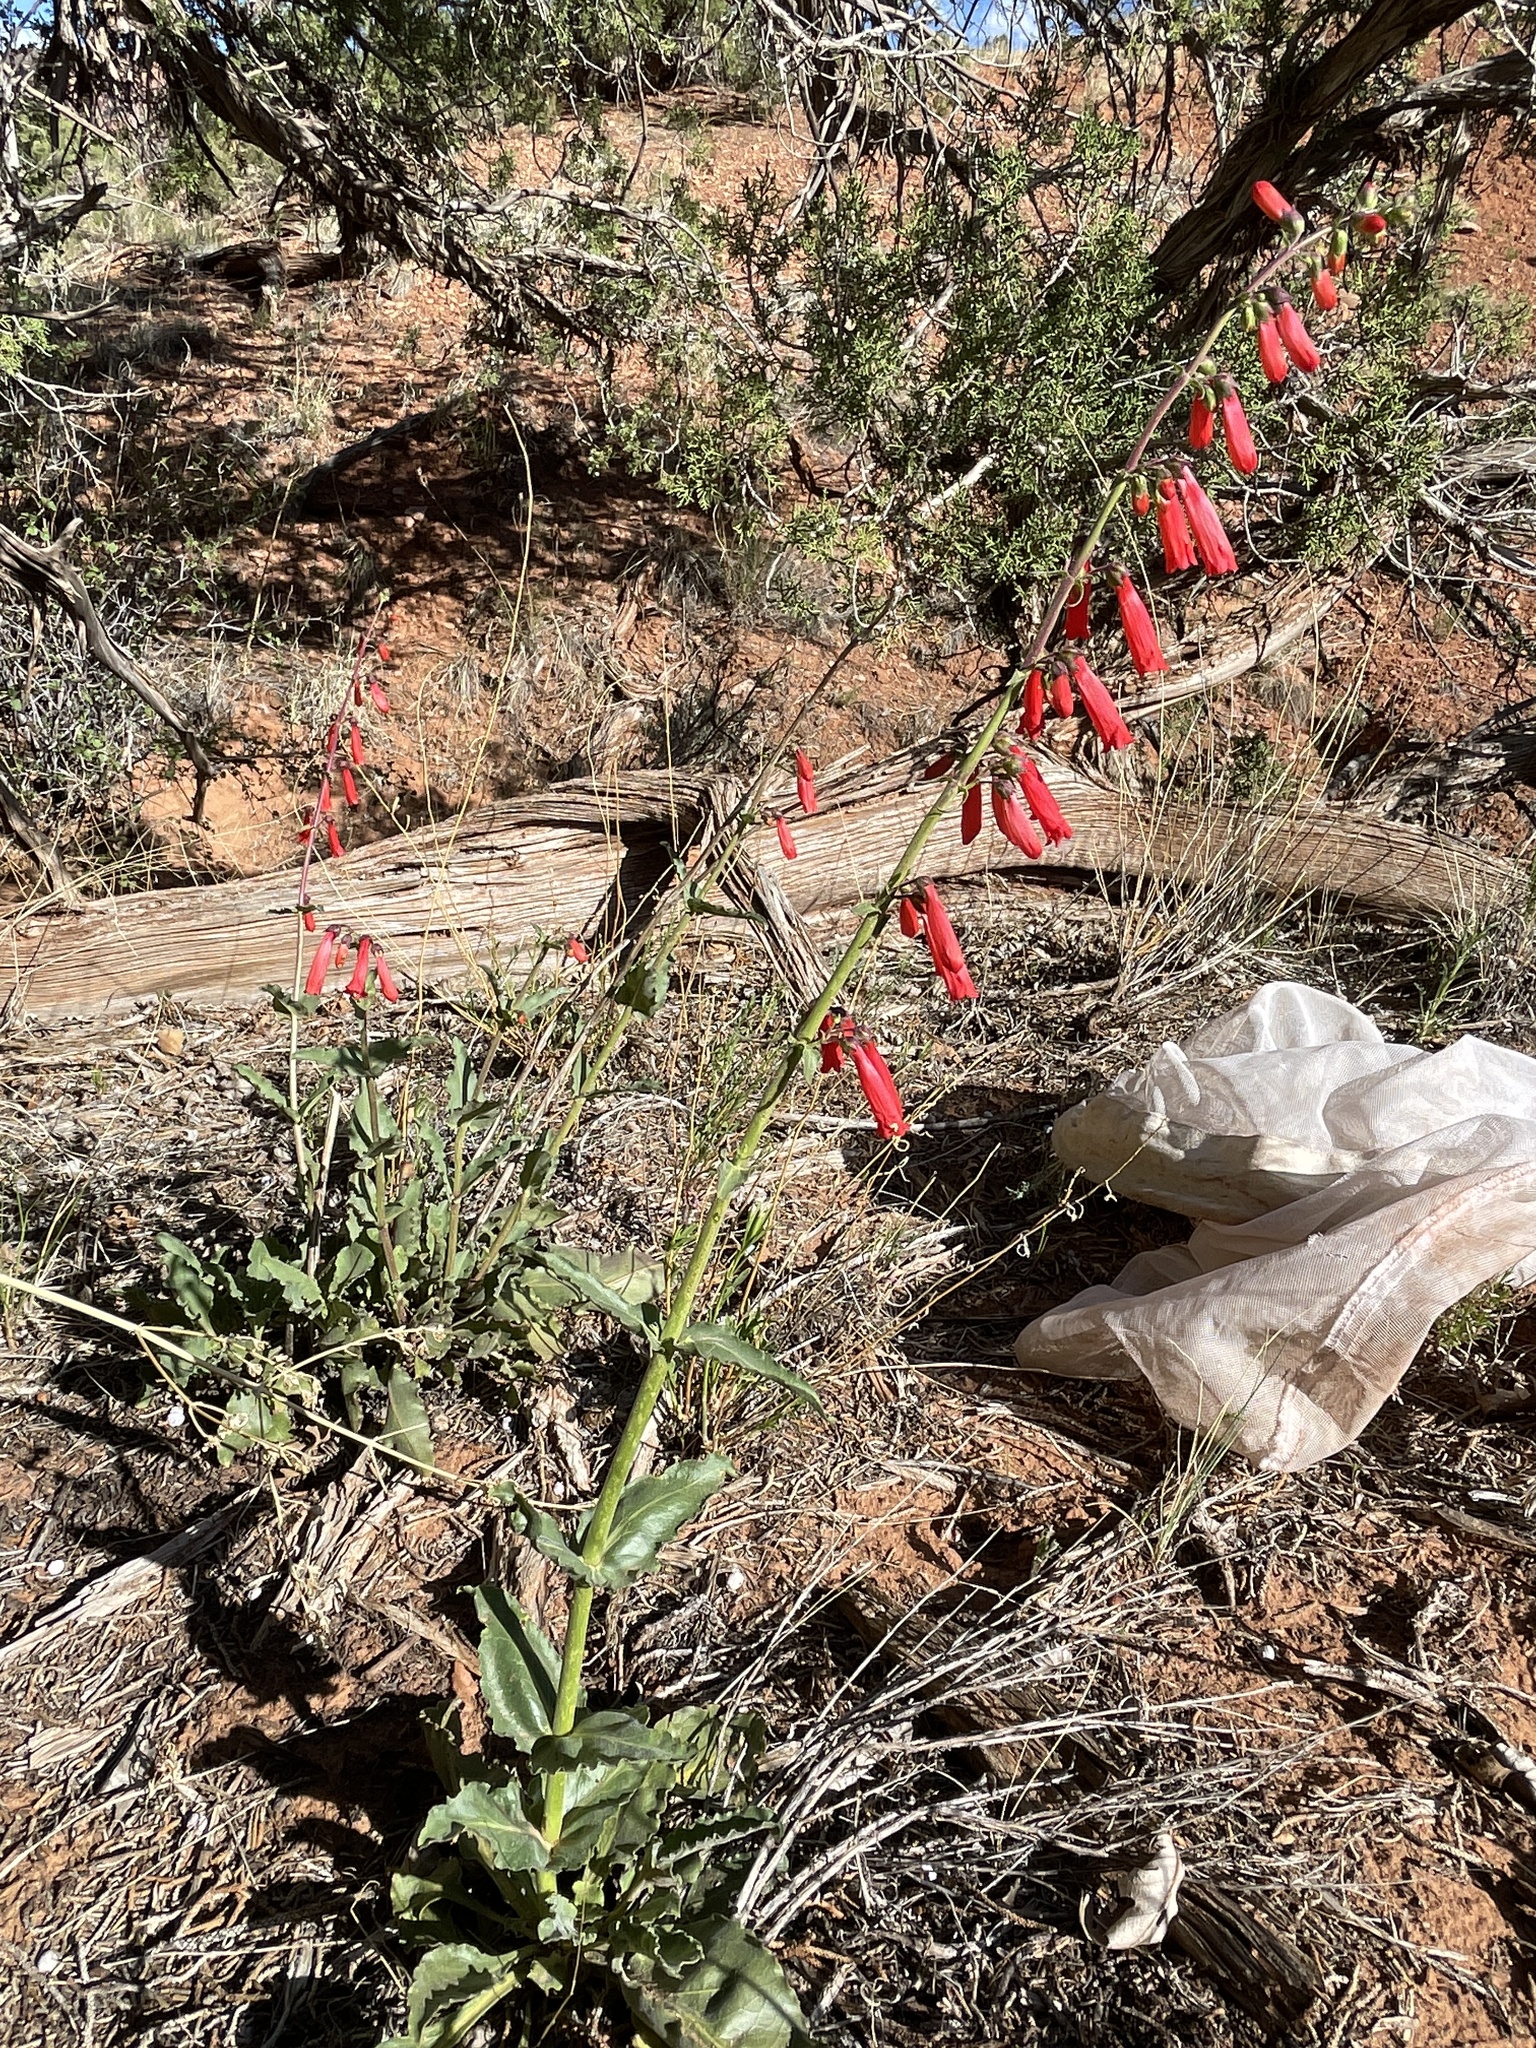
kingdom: Plantae
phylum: Tracheophyta
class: Magnoliopsida
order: Lamiales
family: Plantaginaceae
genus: Penstemon
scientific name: Penstemon eatonii
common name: Eaton's penstemon
